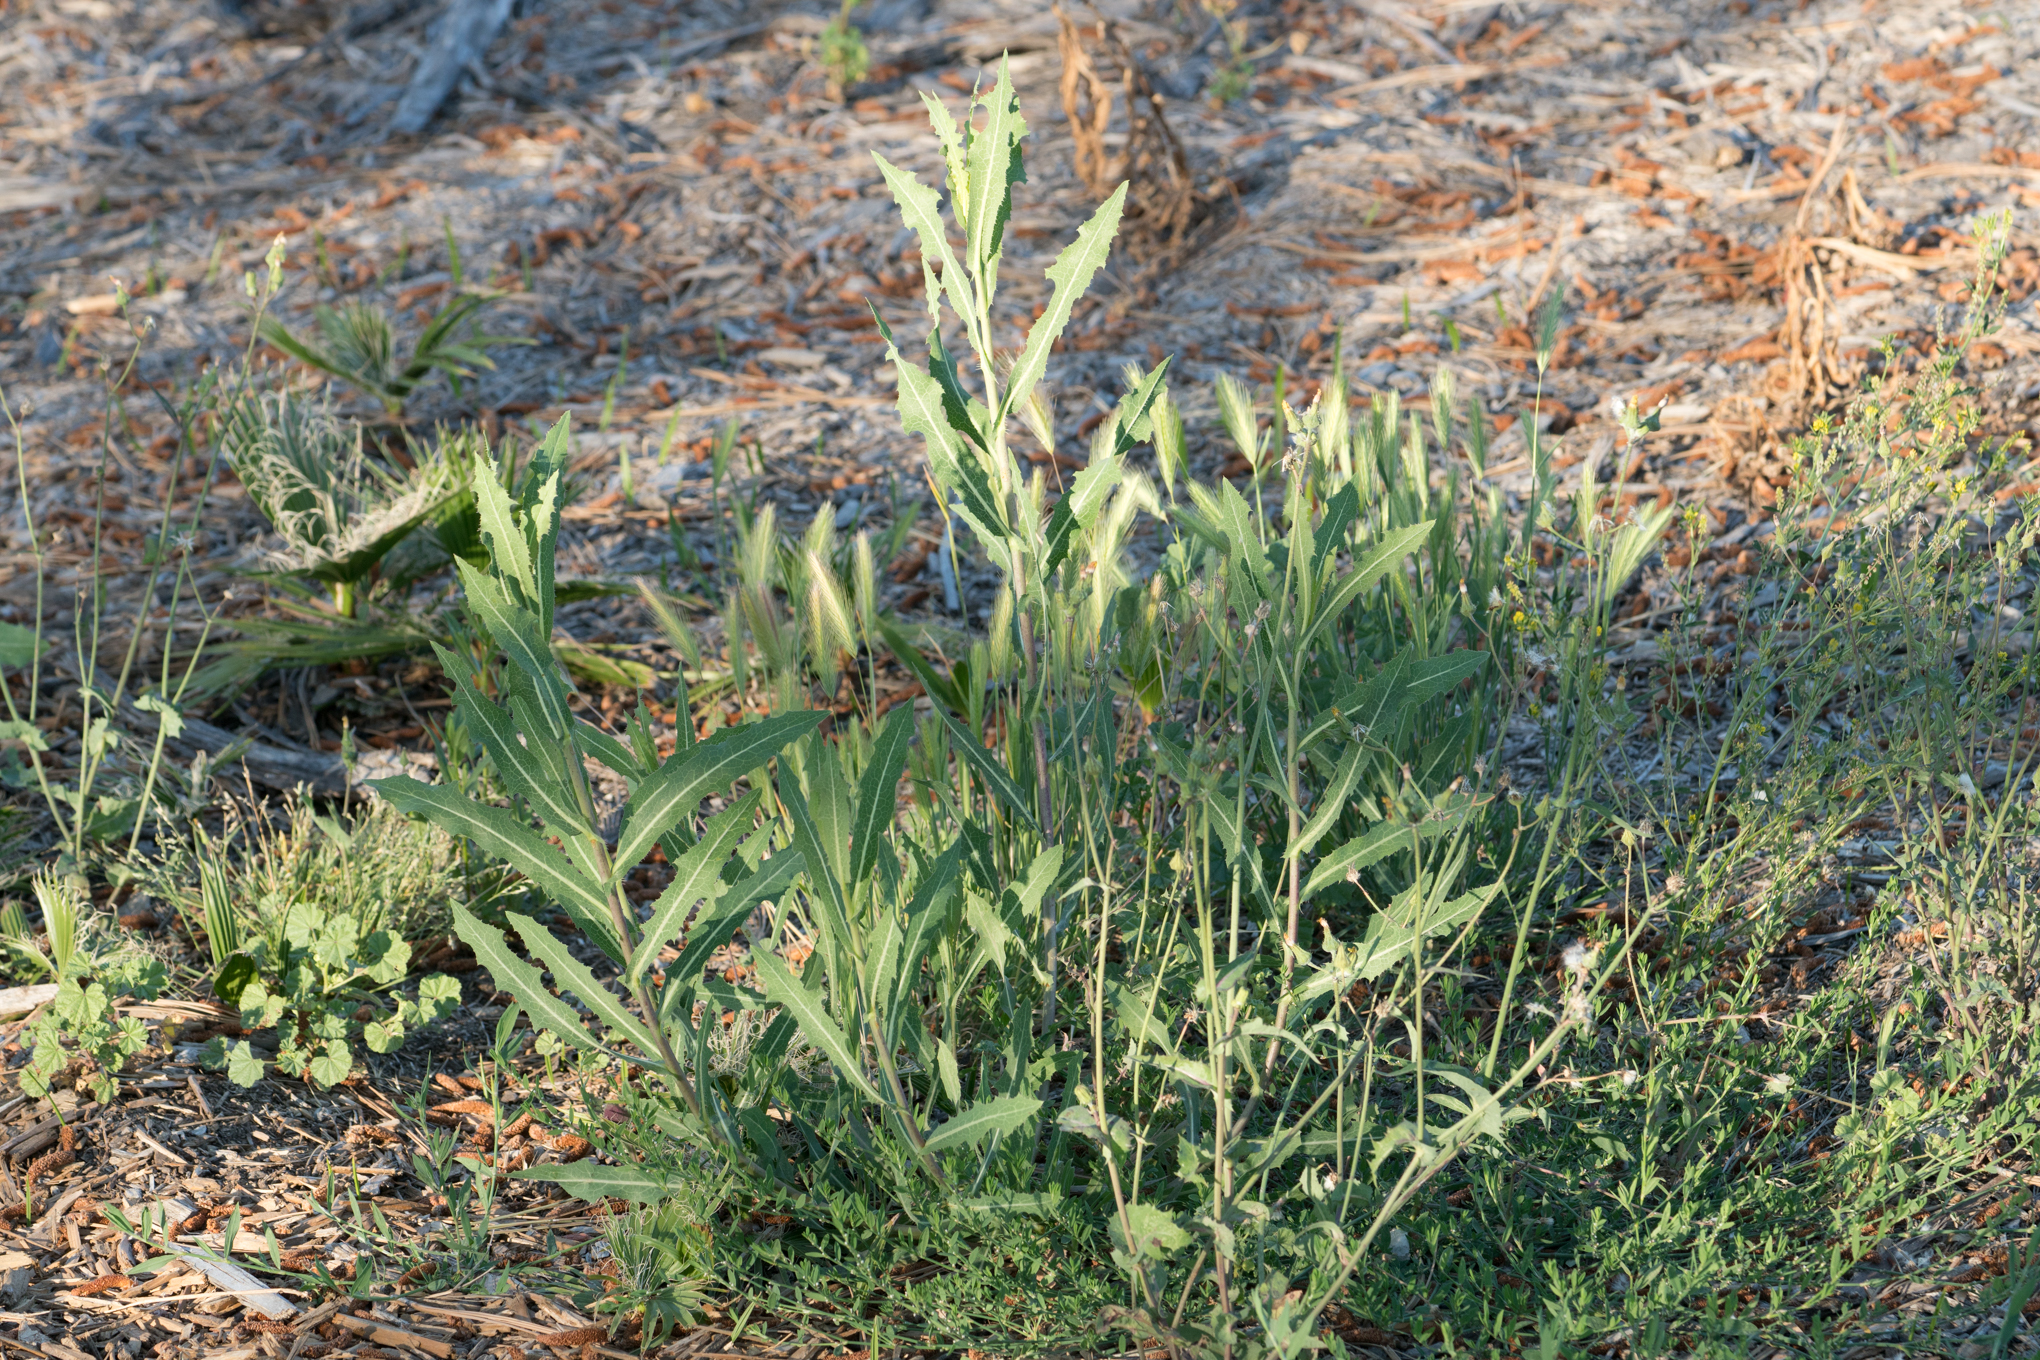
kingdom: Plantae
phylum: Tracheophyta
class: Magnoliopsida
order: Asterales
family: Asteraceae
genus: Lactuca
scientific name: Lactuca serriola
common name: Prickly lettuce
